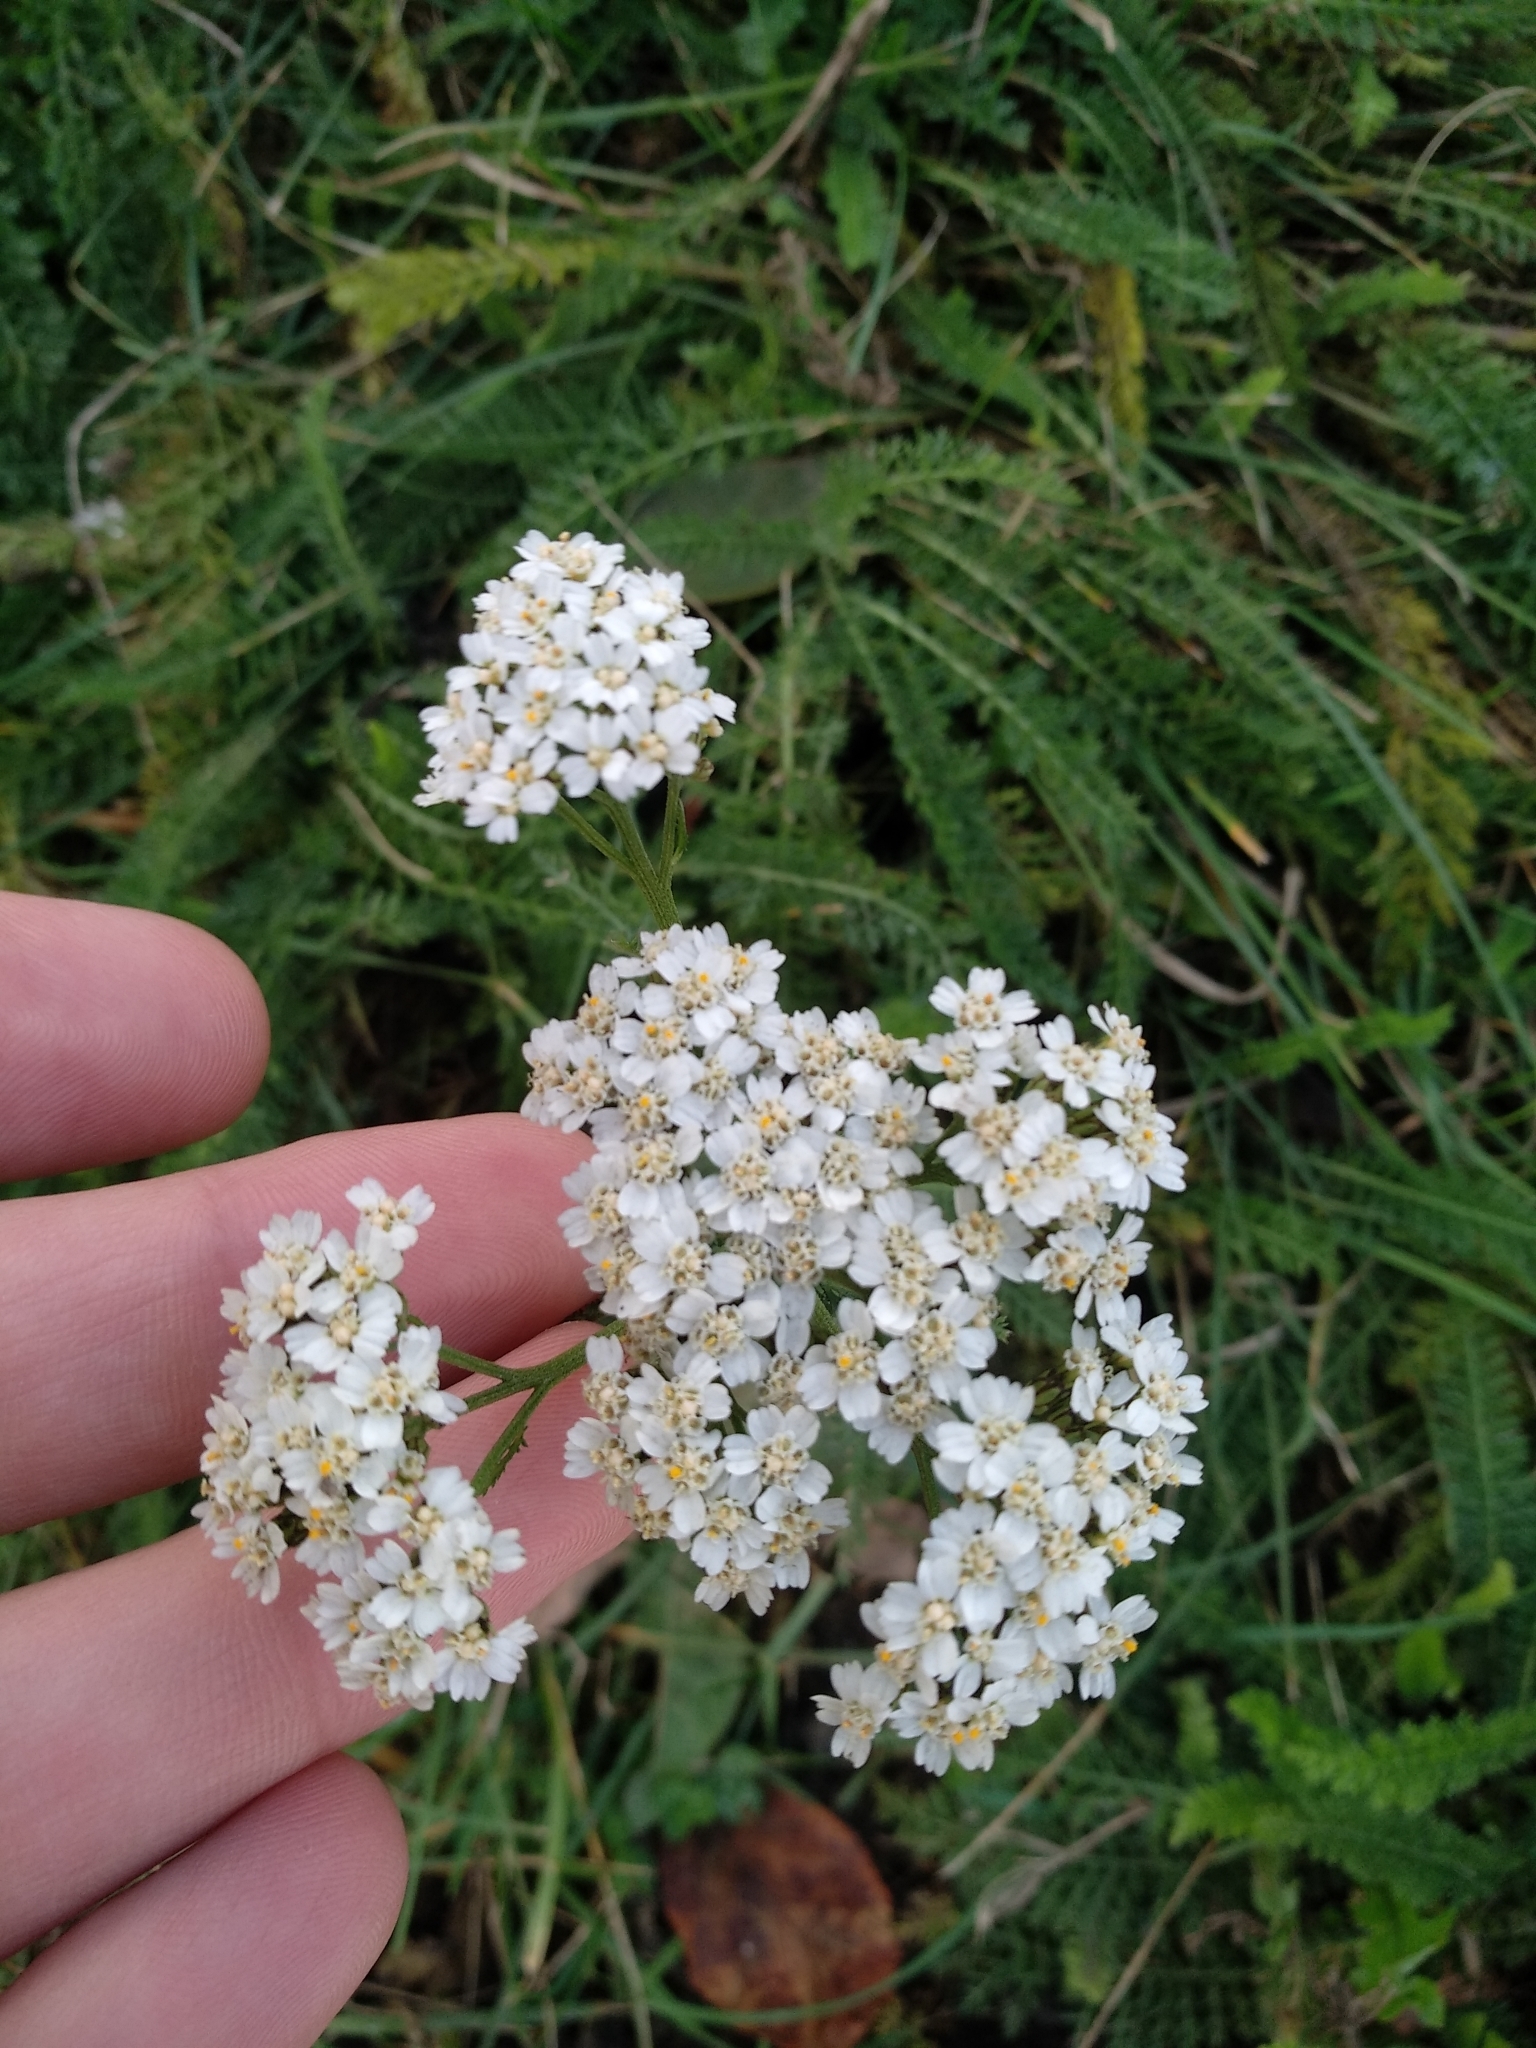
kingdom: Plantae
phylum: Tracheophyta
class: Magnoliopsida
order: Asterales
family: Asteraceae
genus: Achillea
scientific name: Achillea millefolium
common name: Yarrow
